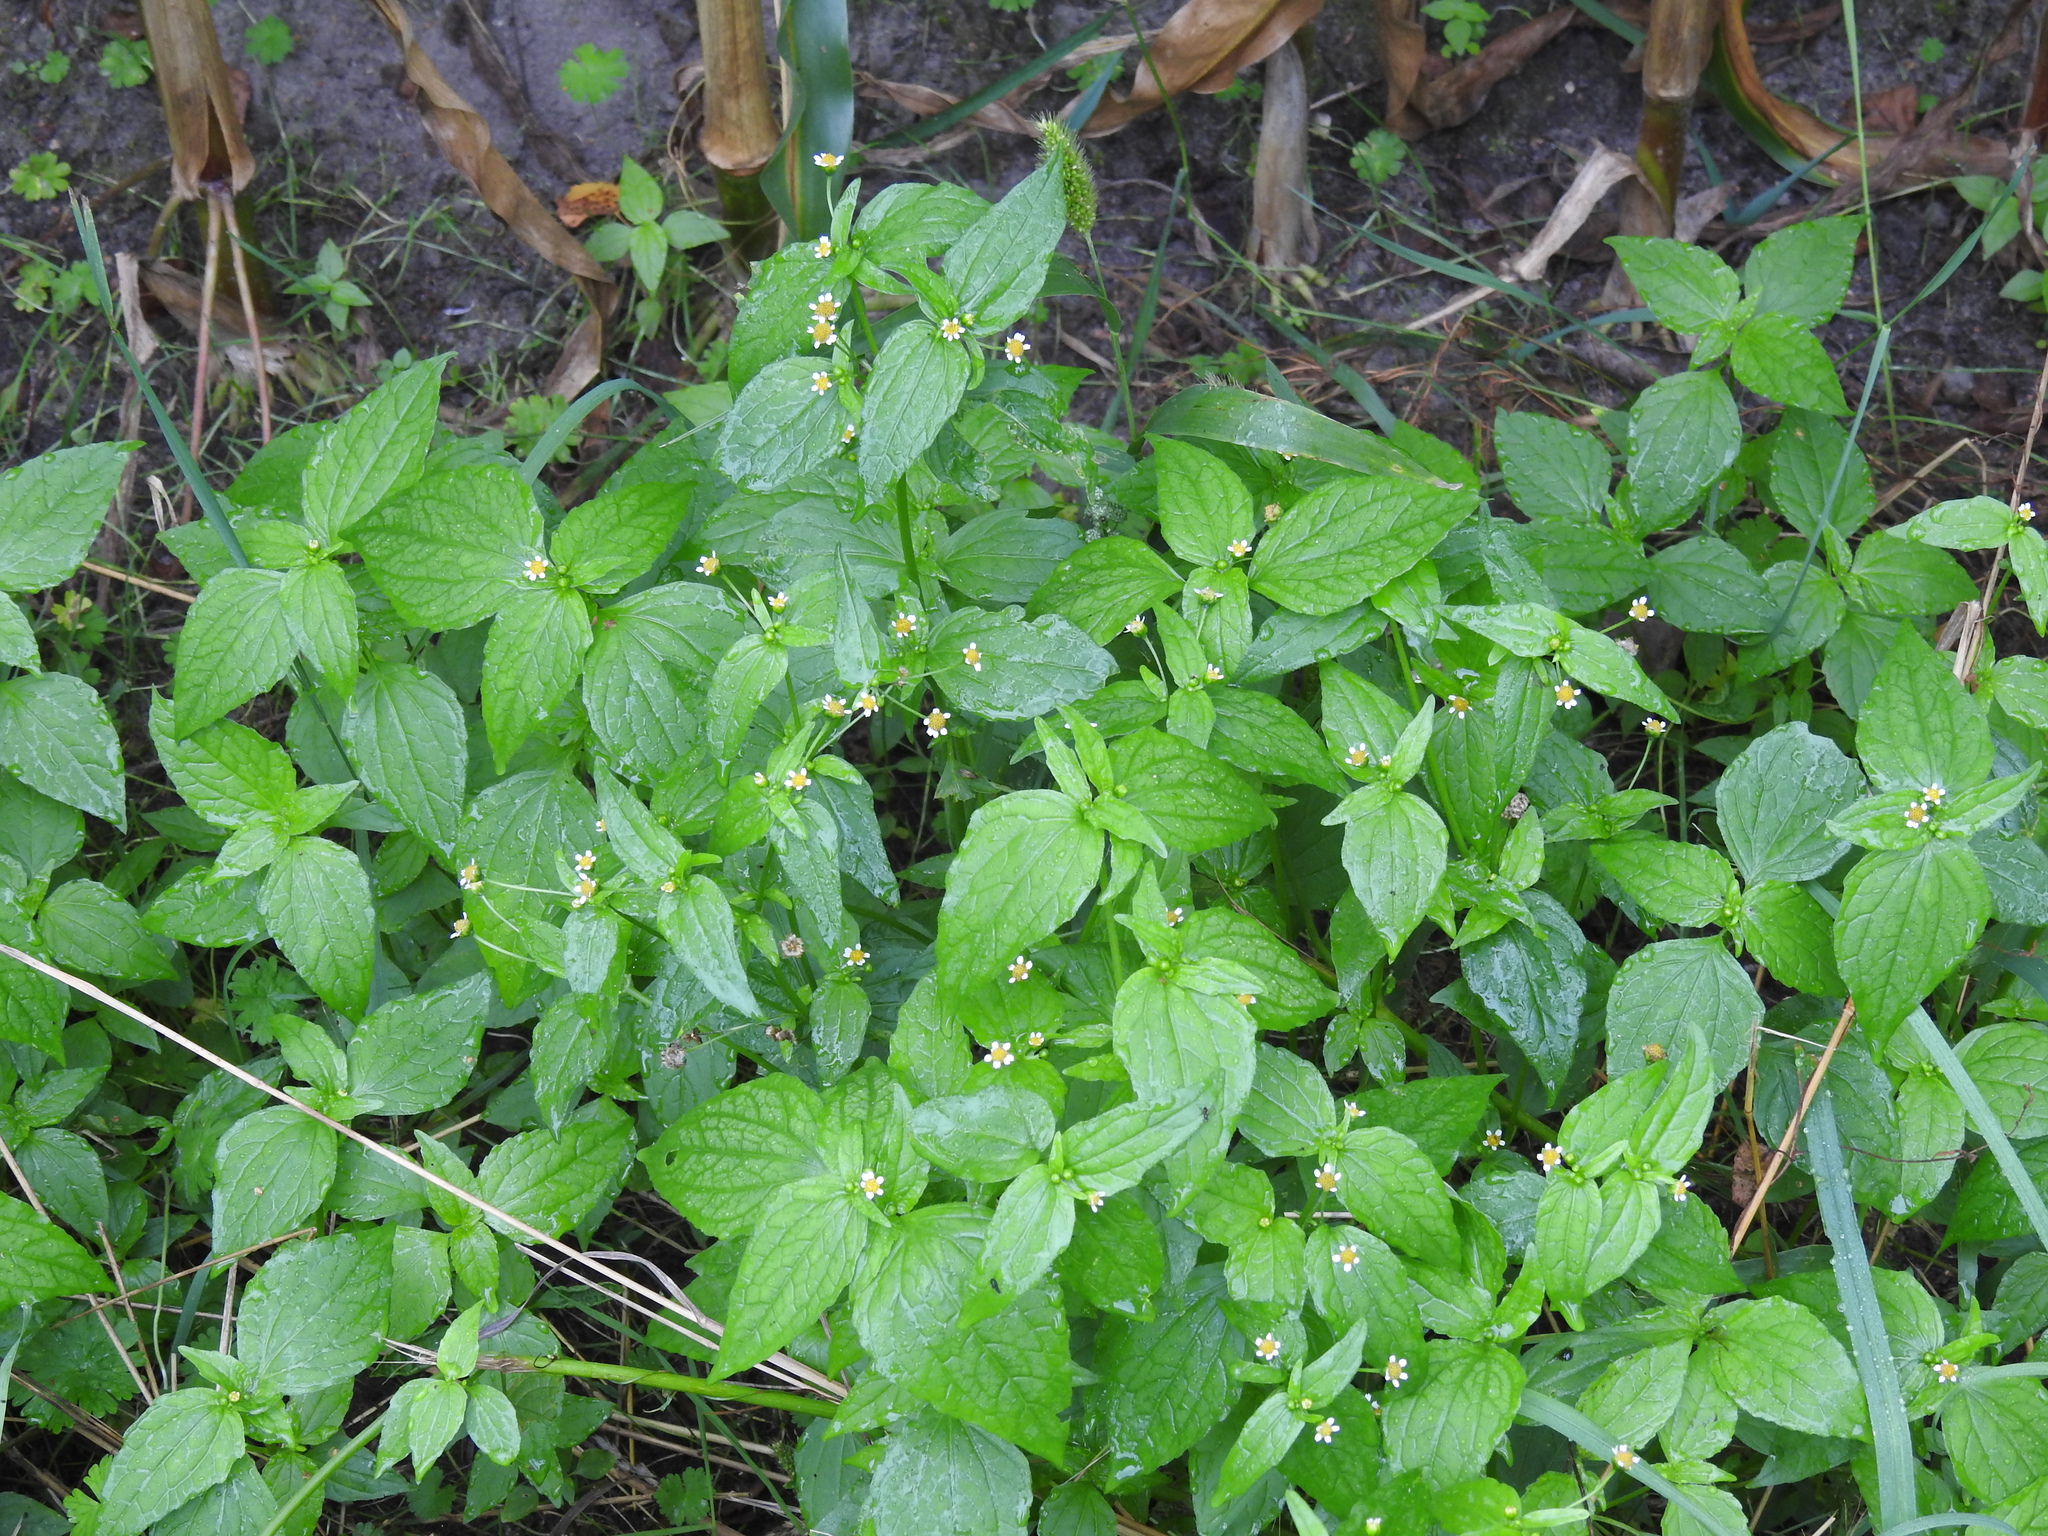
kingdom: Plantae
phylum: Tracheophyta
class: Magnoliopsida
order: Asterales
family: Asteraceae
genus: Galinsoga
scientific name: Galinsoga parviflora
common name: Gallant soldier
